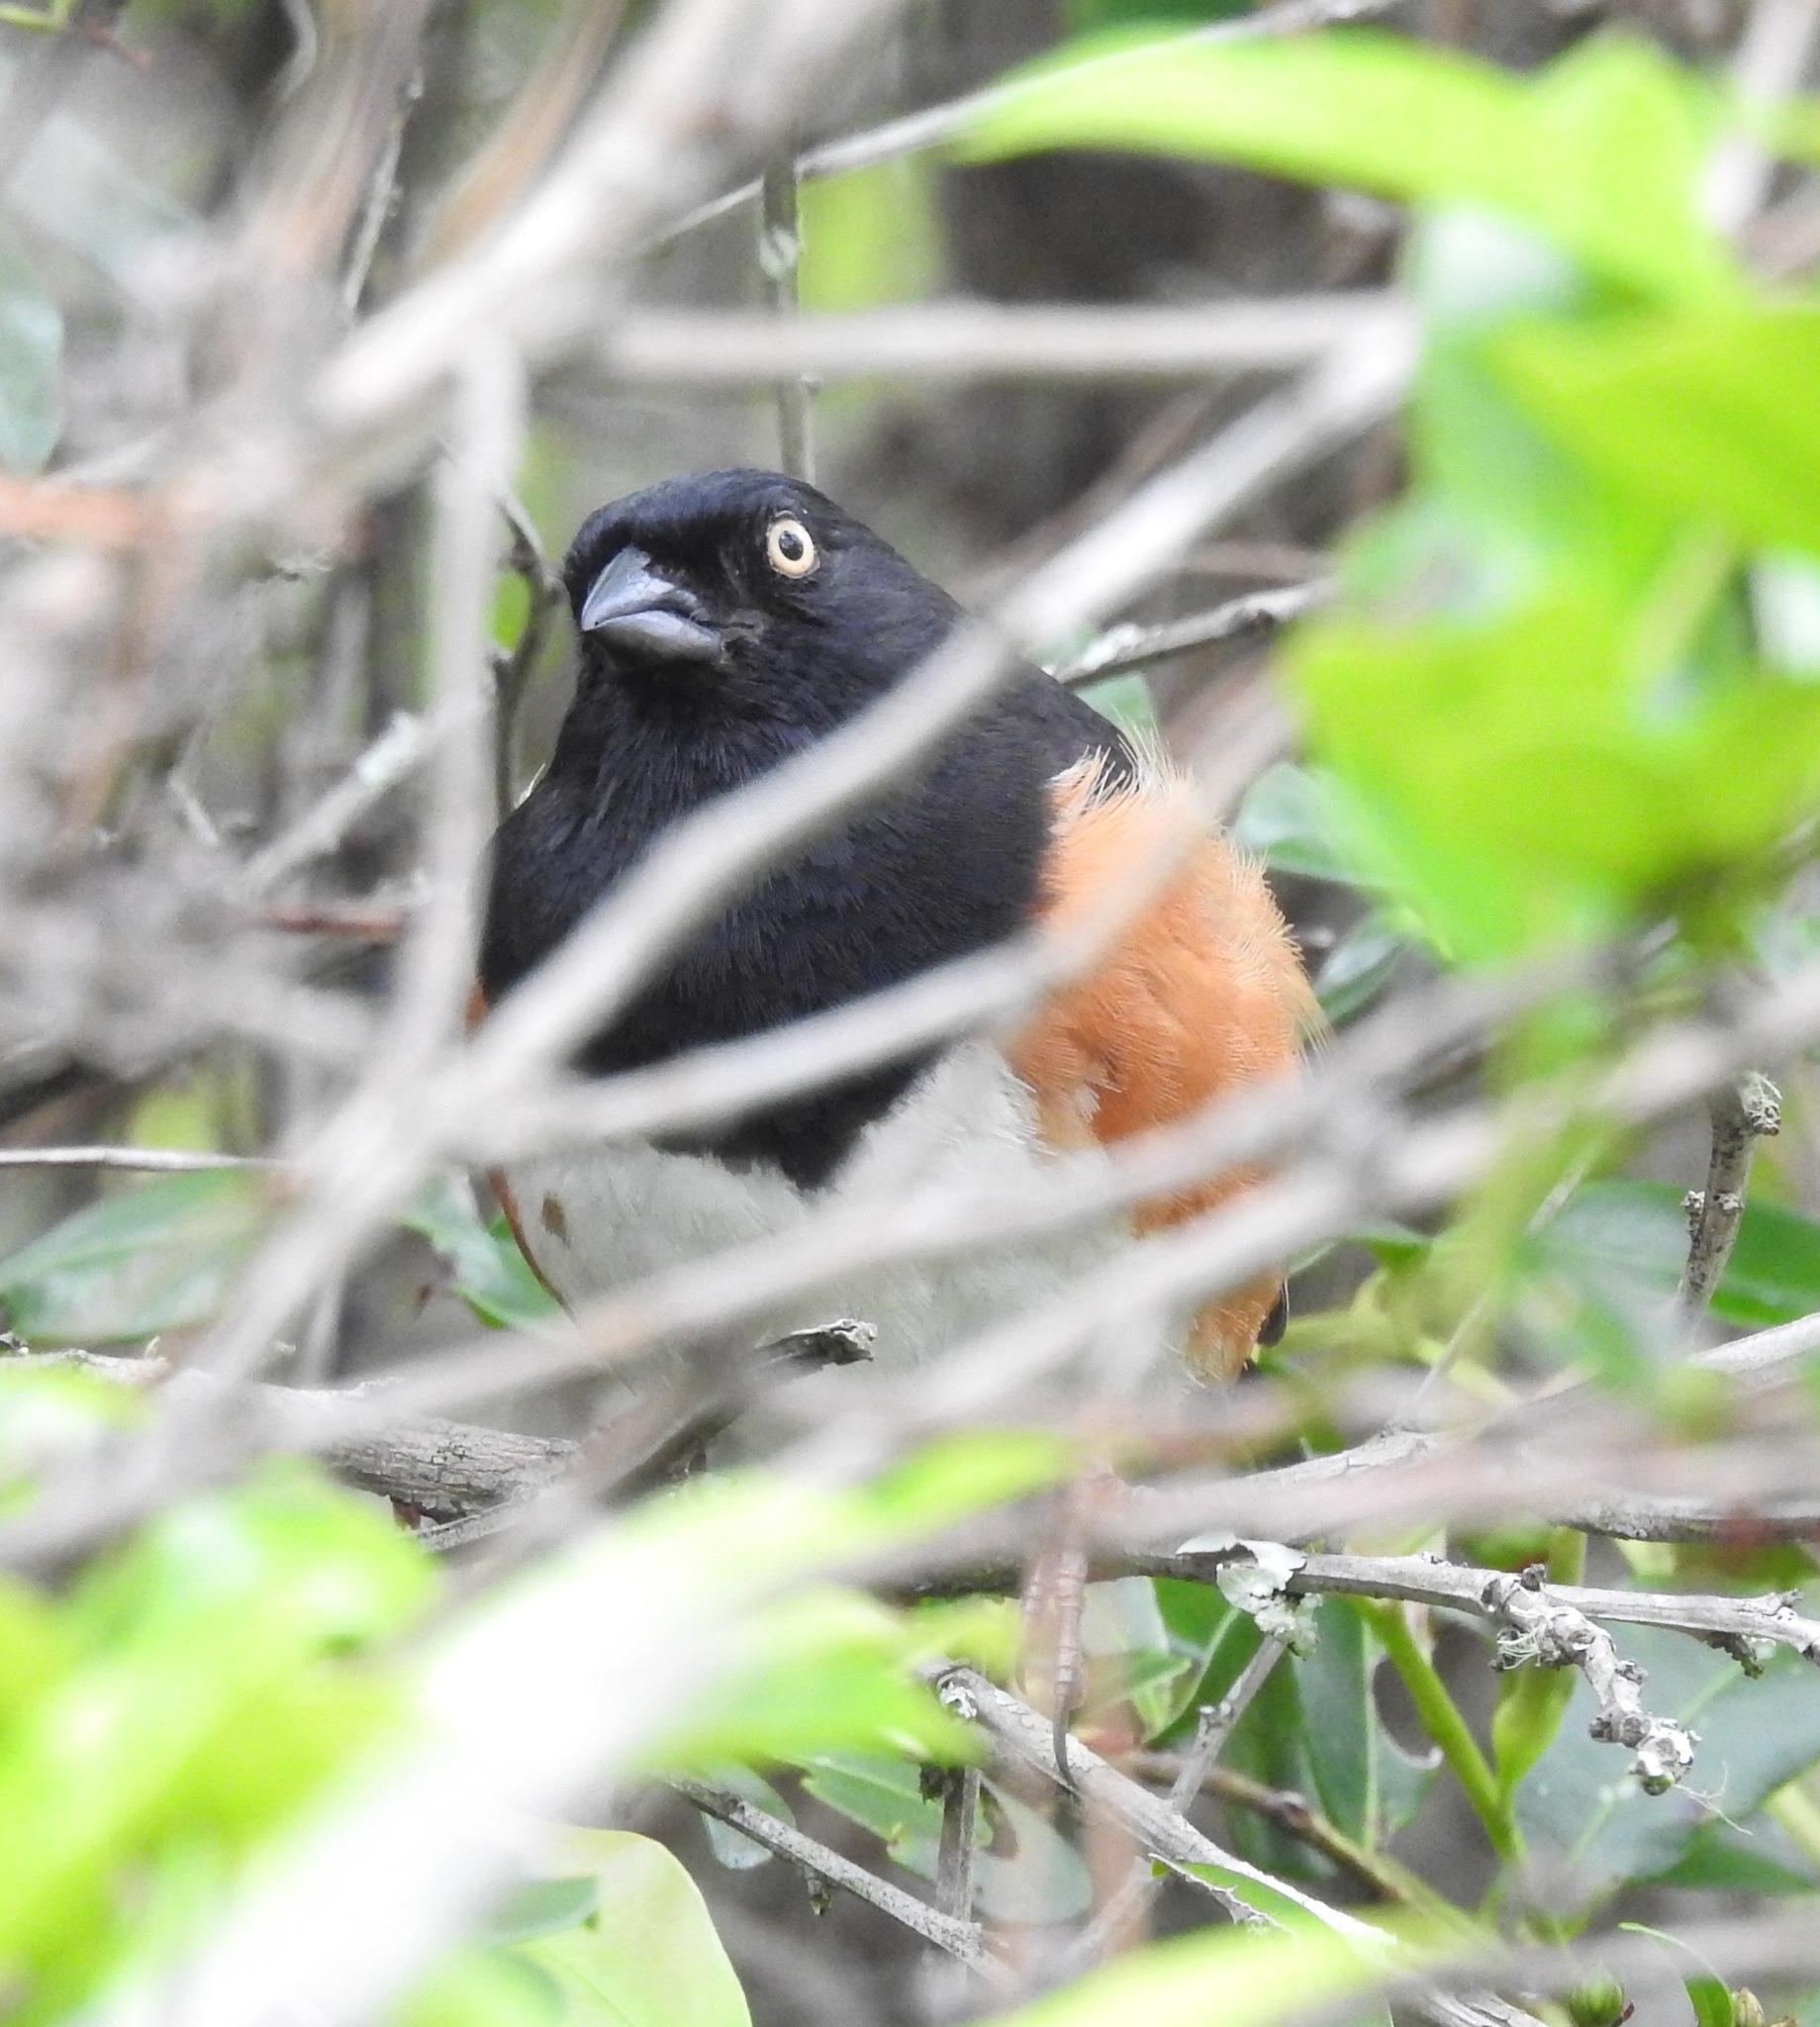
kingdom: Animalia
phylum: Chordata
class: Aves
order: Passeriformes
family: Passerellidae
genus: Pipilo
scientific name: Pipilo erythrophthalmus
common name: Eastern towhee
